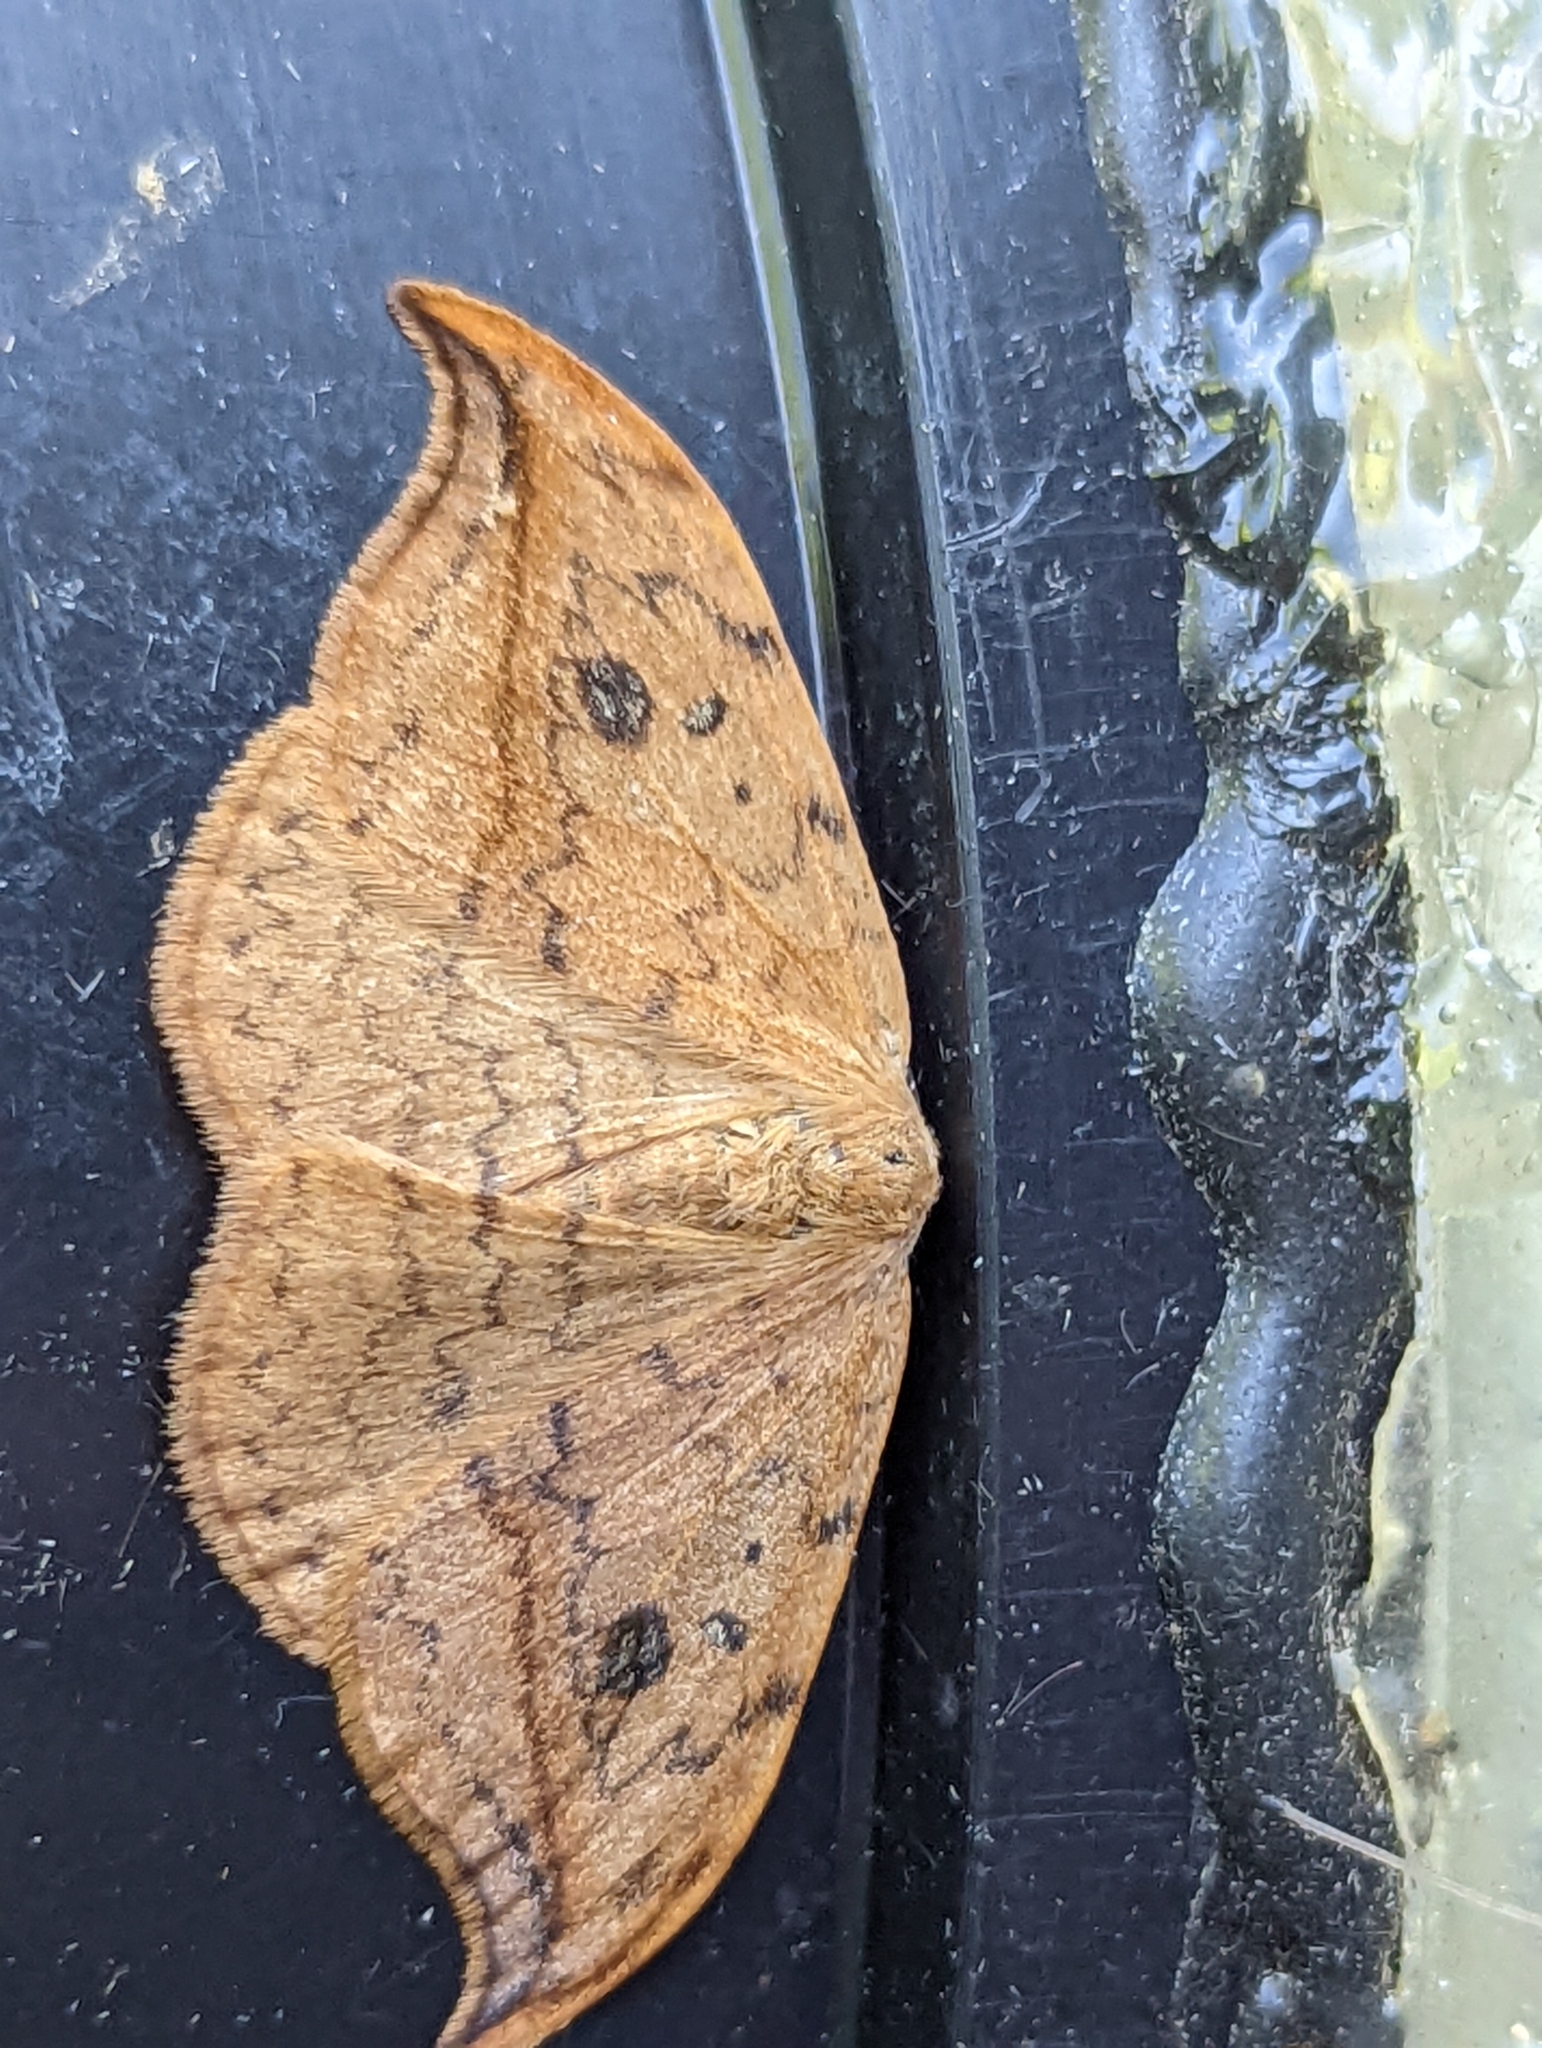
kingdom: Animalia
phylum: Arthropoda
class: Insecta
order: Lepidoptera
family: Drepanidae
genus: Drepana
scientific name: Drepana falcataria
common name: Pebble hook-tip
